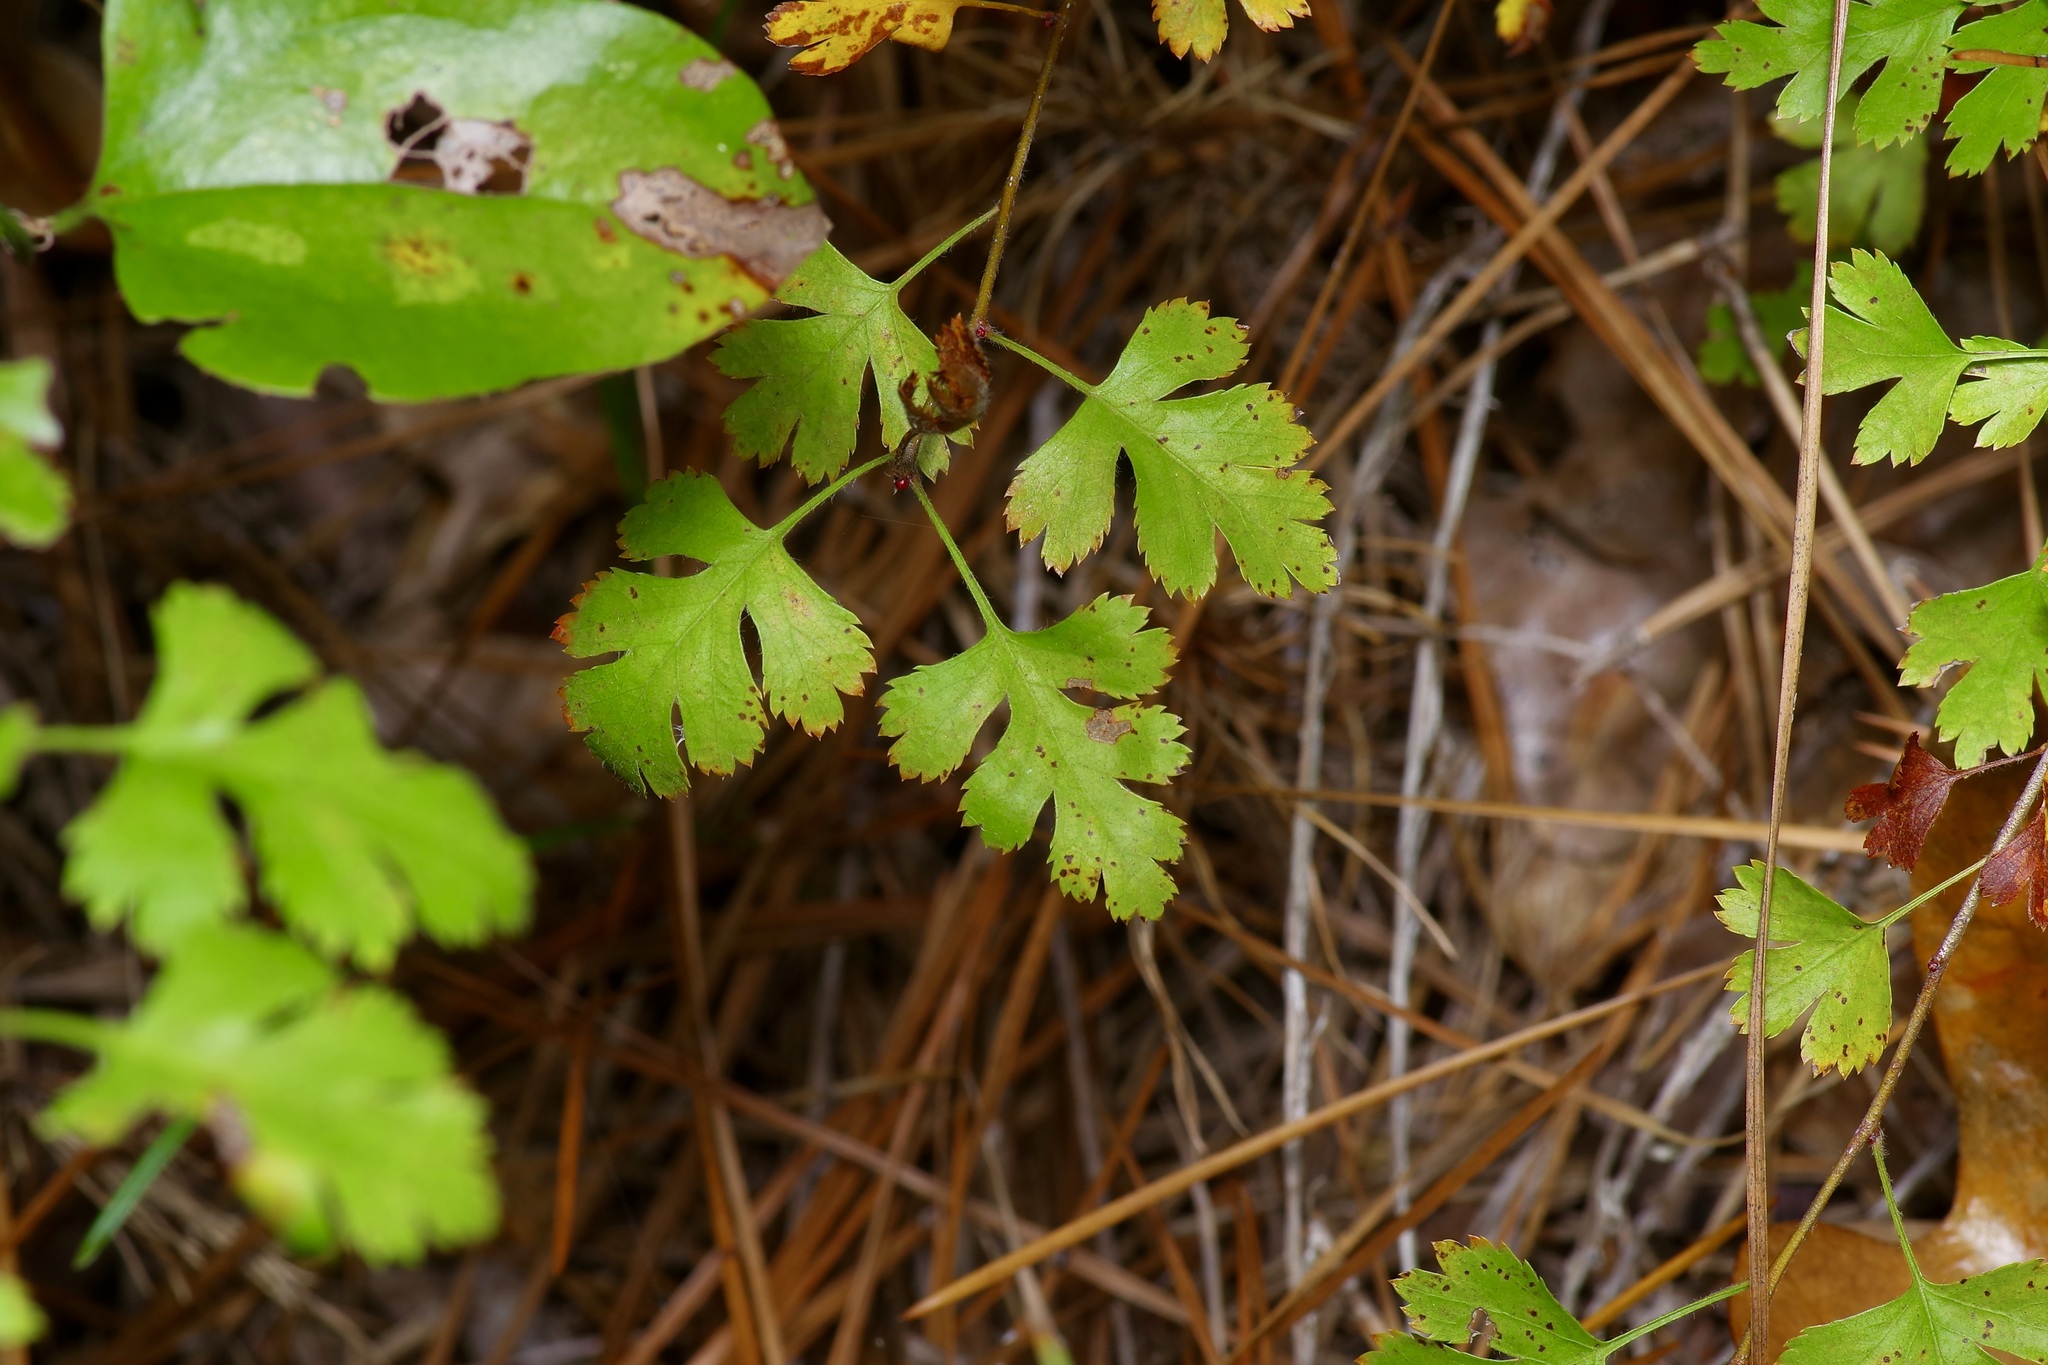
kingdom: Plantae
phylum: Tracheophyta
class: Magnoliopsida
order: Rosales
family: Rosaceae
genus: Crataegus
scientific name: Crataegus marshallii
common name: Parsley-hawthorn
